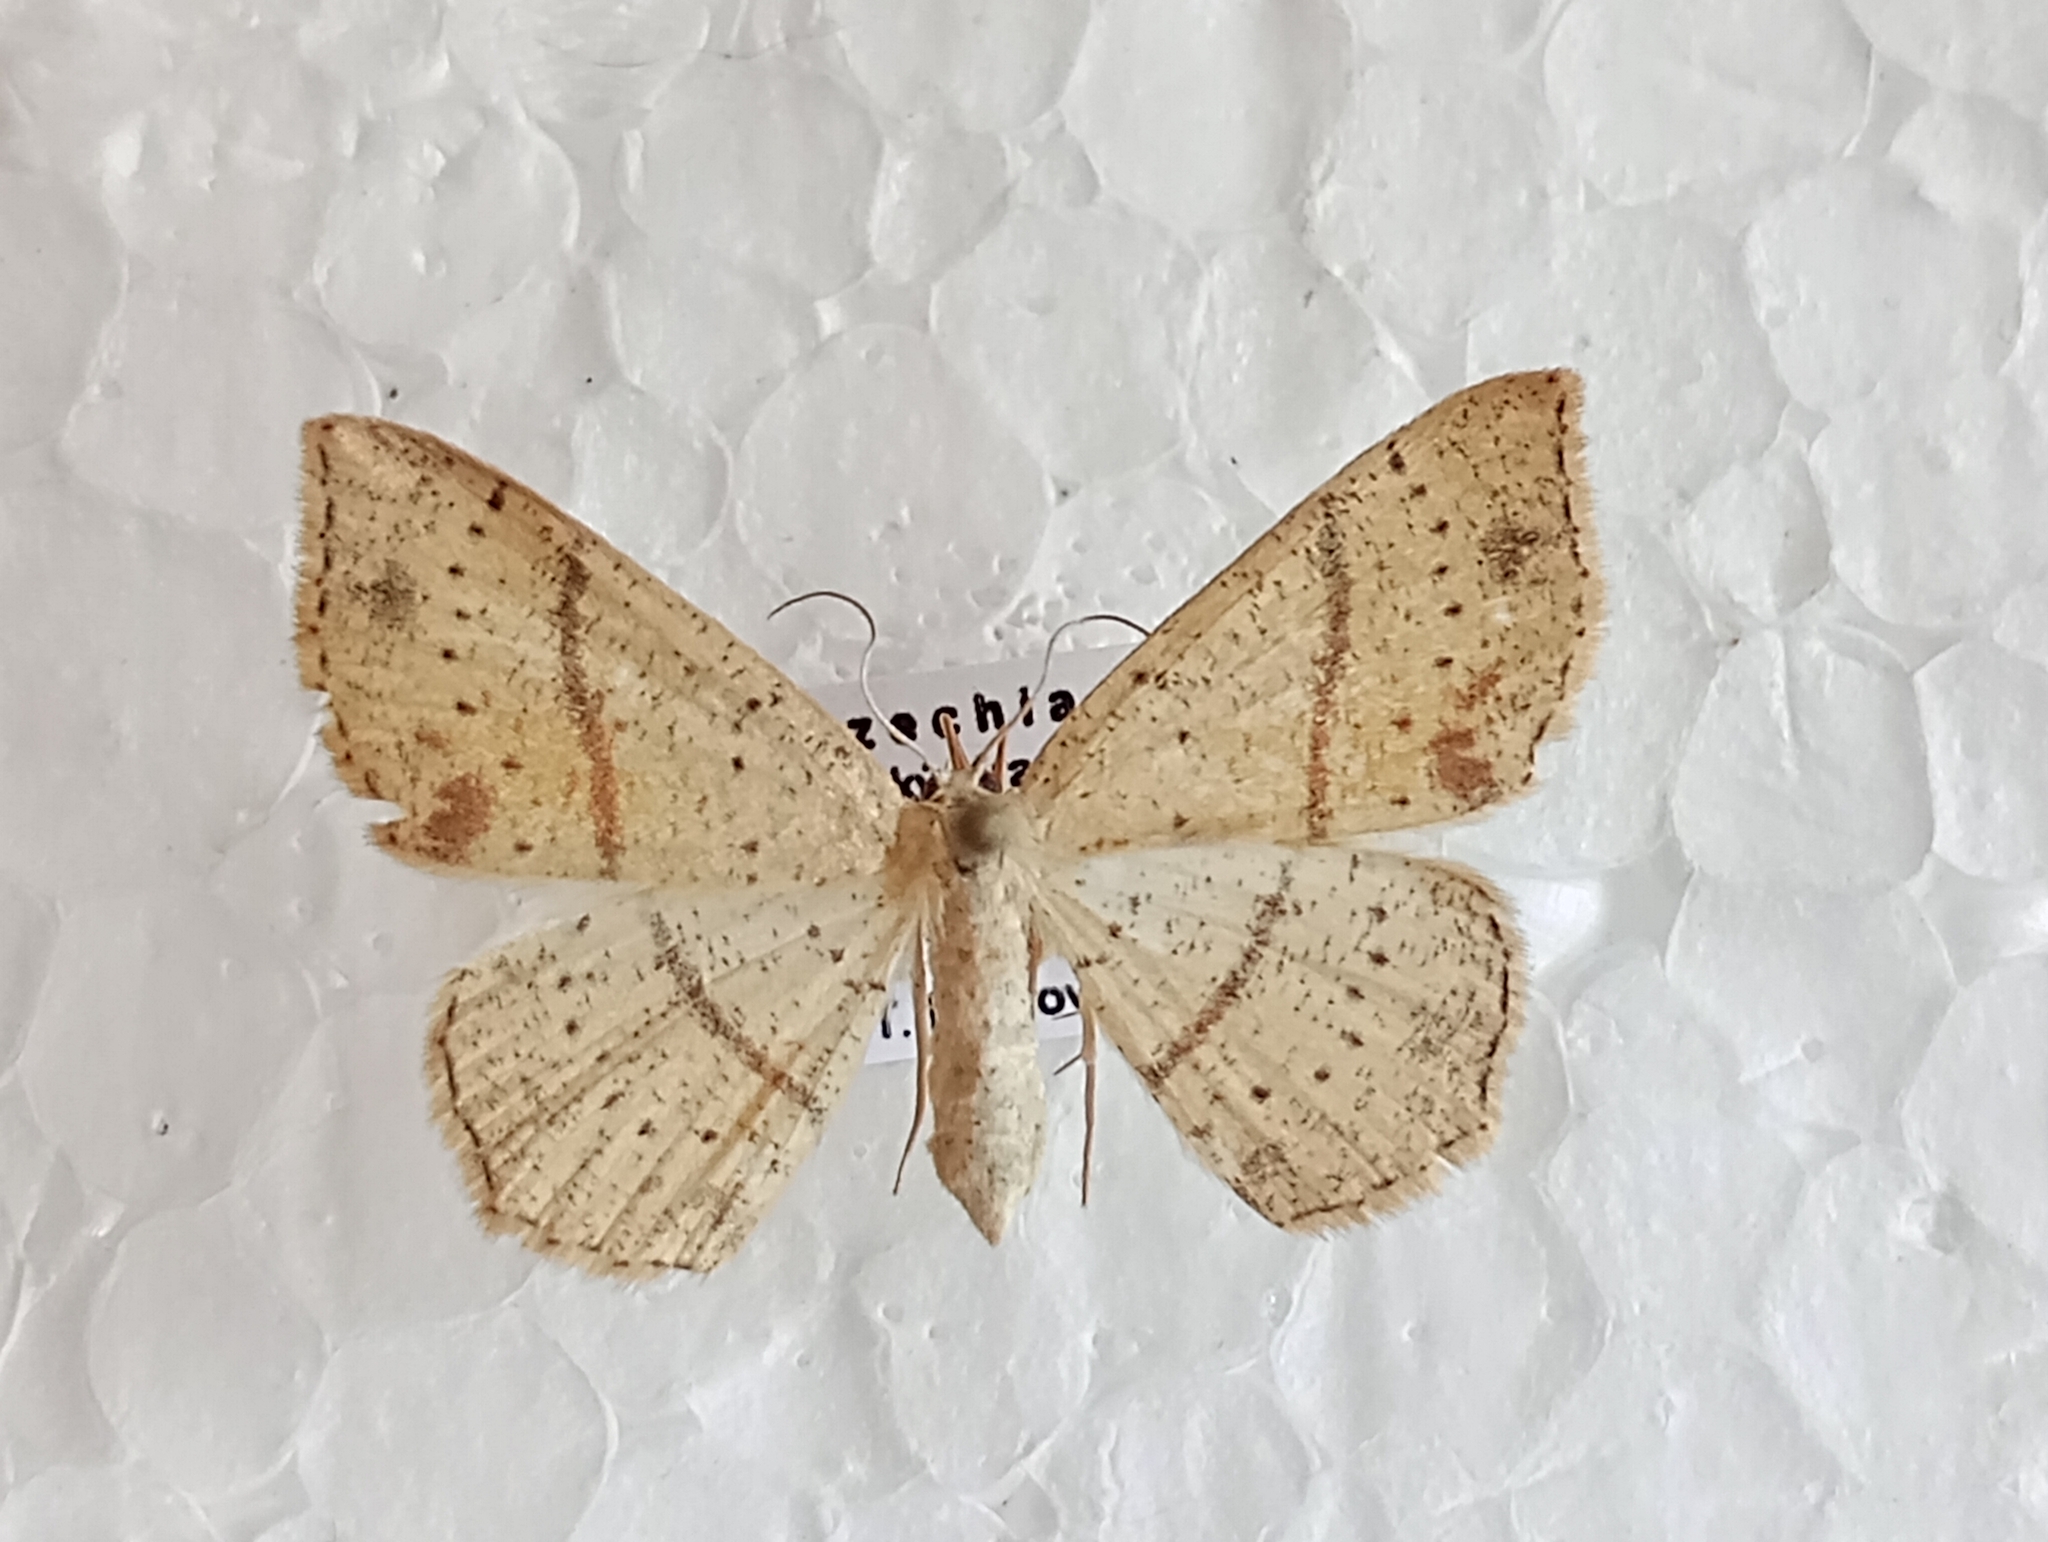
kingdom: Animalia
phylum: Arthropoda
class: Insecta
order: Lepidoptera
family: Geometridae
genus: Cyclophora
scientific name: Cyclophora punctaria
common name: Maiden's blush
